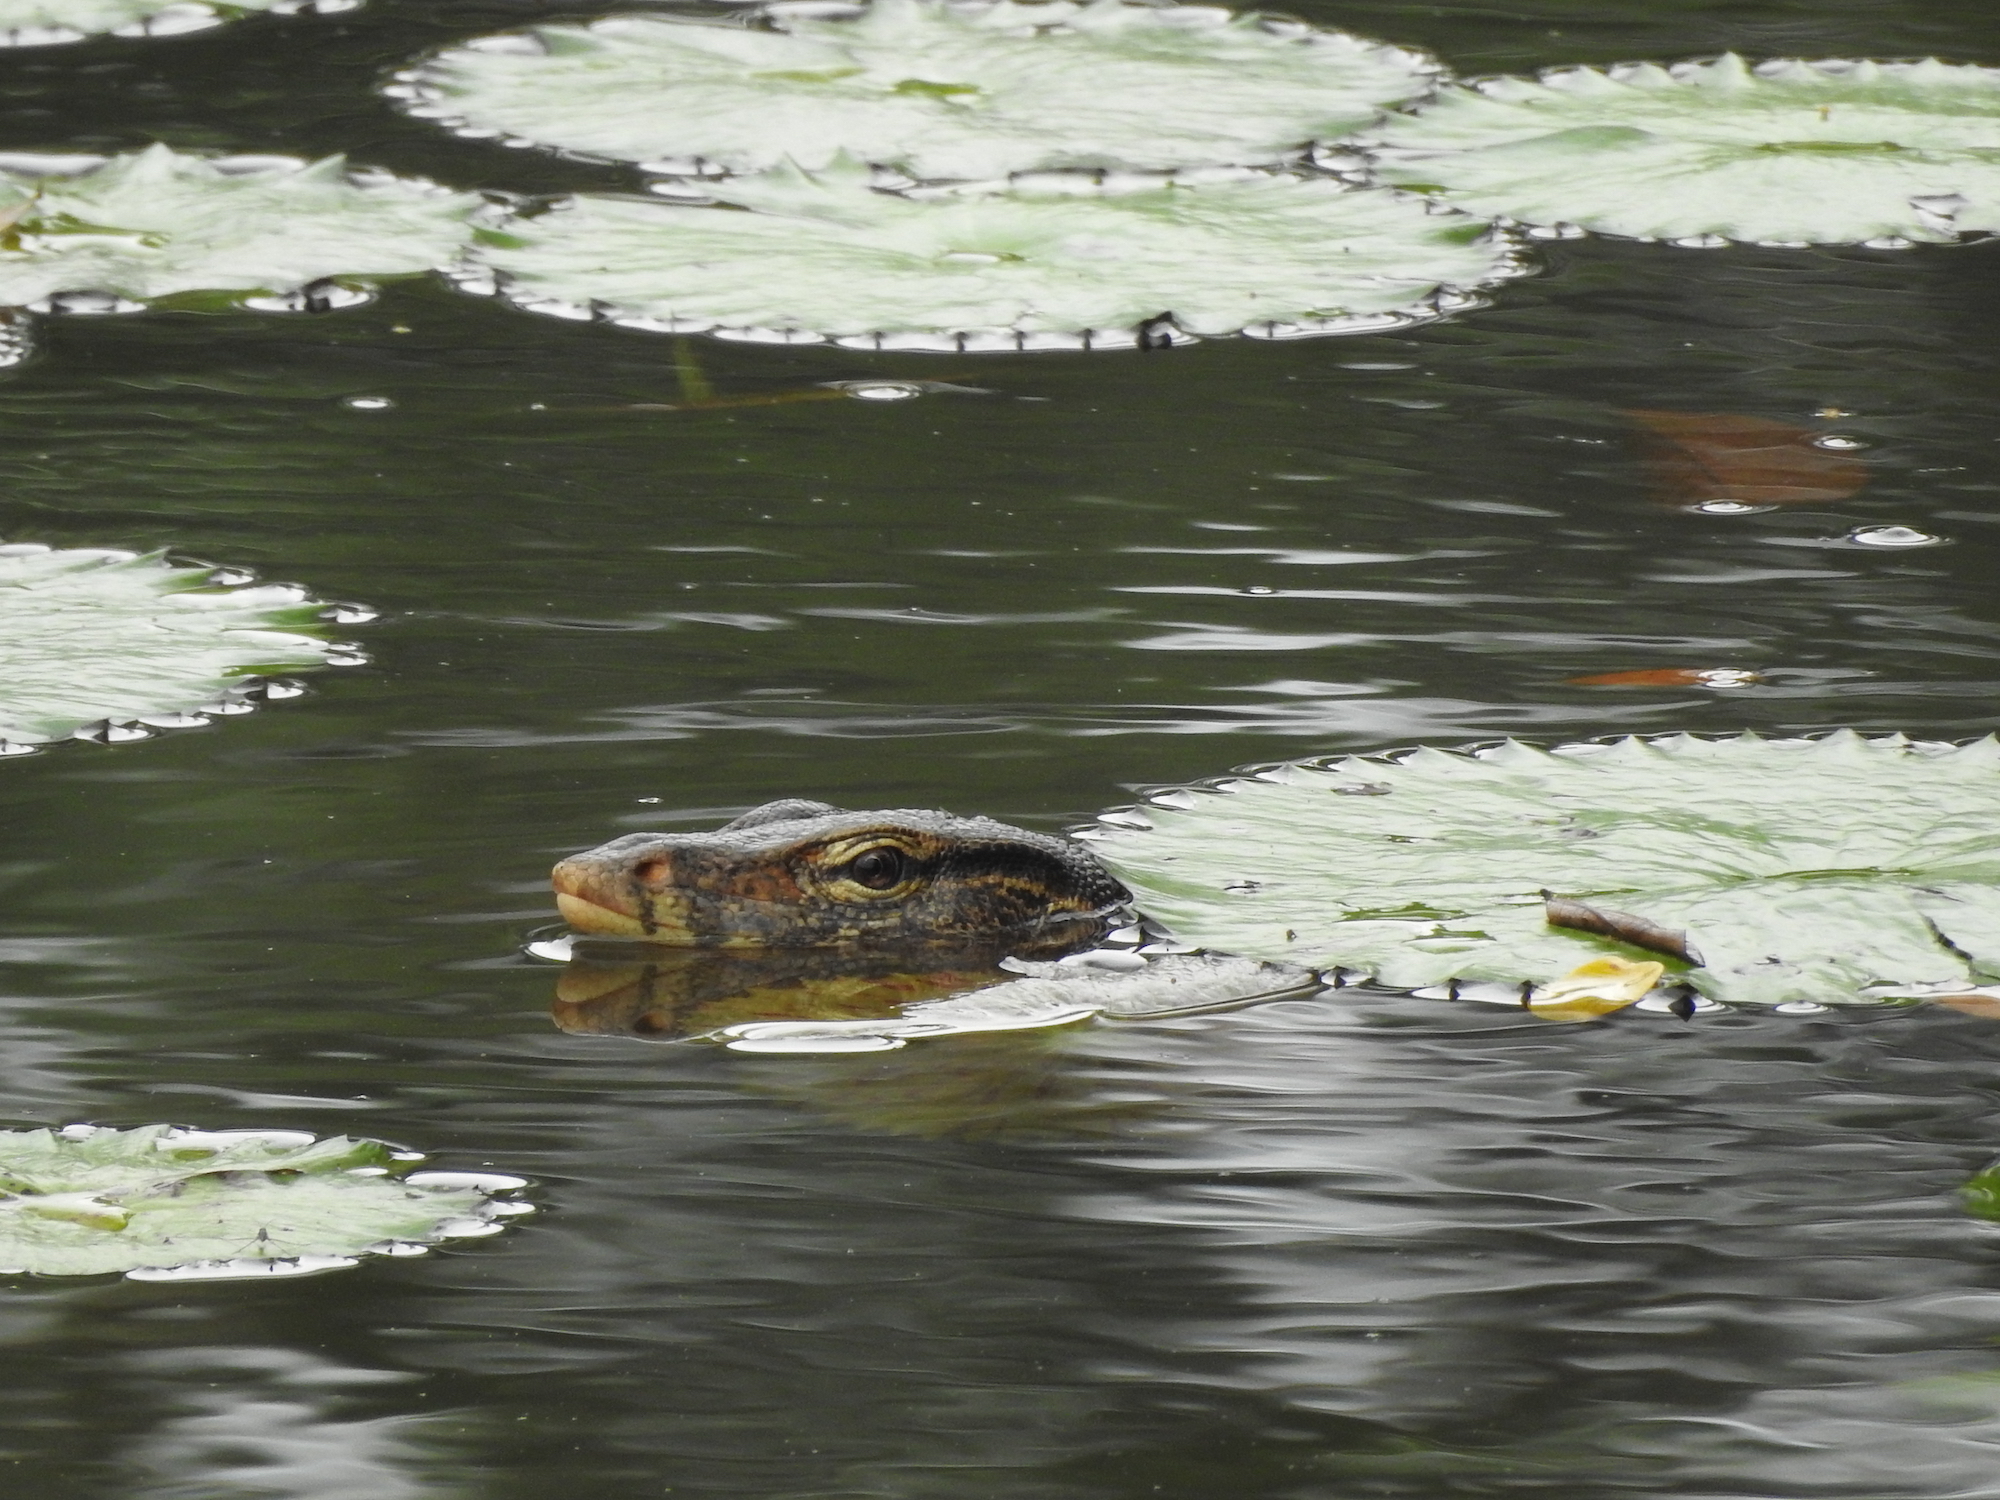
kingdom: Animalia
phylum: Chordata
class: Squamata
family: Varanidae
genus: Varanus
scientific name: Varanus salvator
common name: Common water monitor
